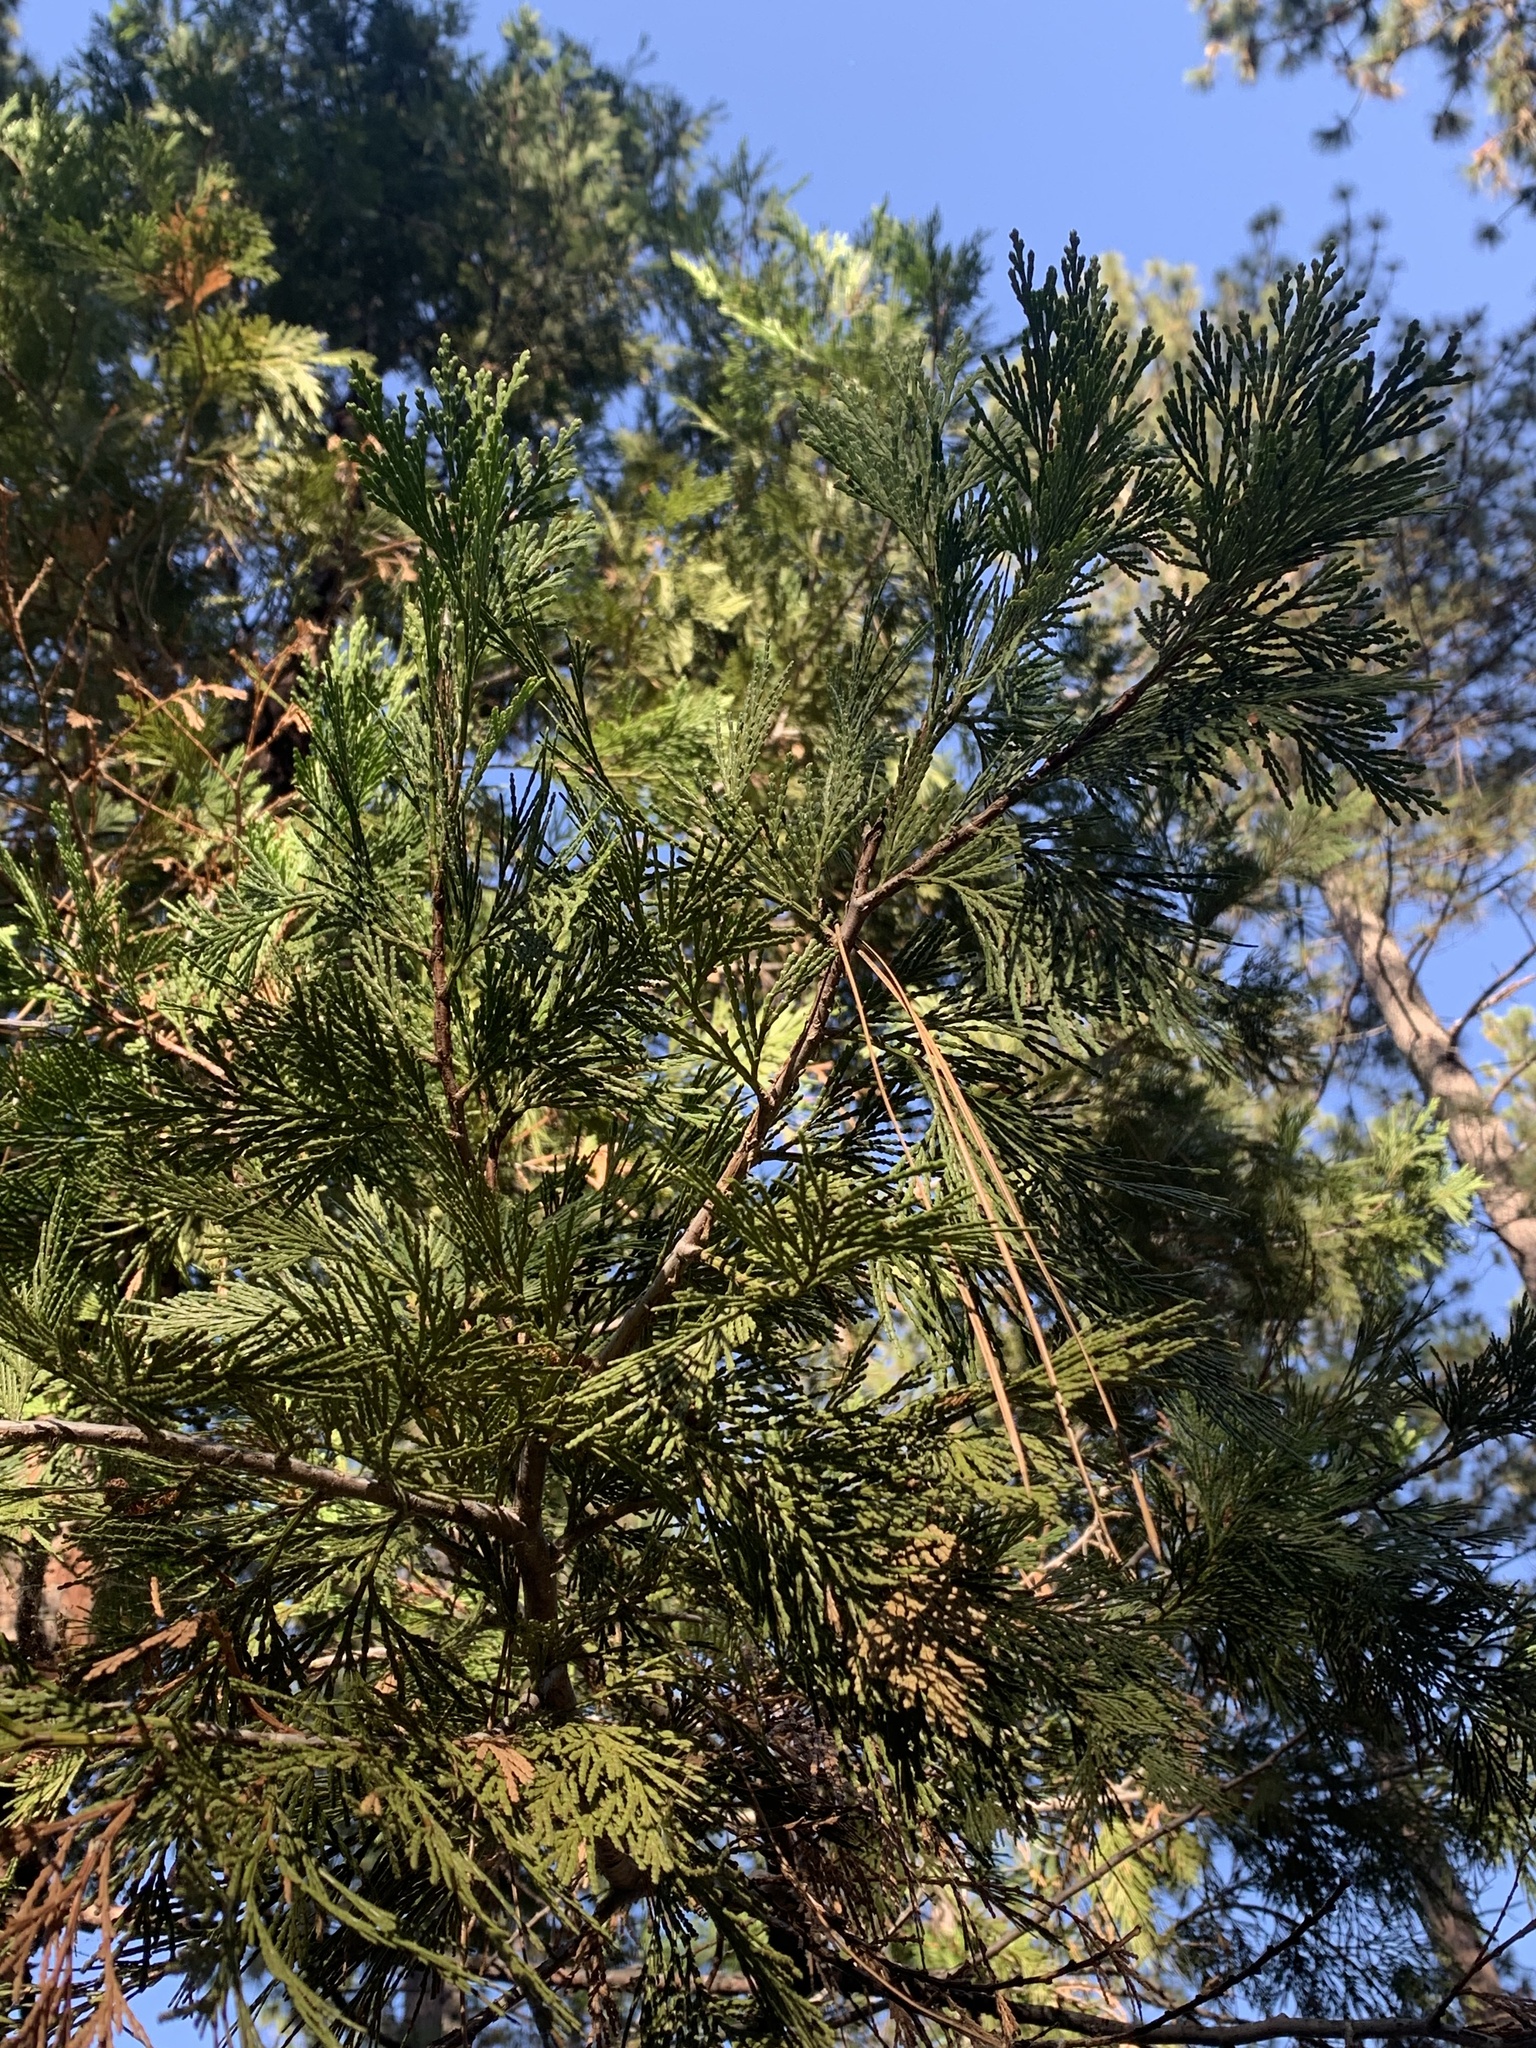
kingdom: Plantae
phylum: Tracheophyta
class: Pinopsida
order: Pinales
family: Cupressaceae
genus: Calocedrus
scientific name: Calocedrus decurrens
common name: Californian incense-cedar
